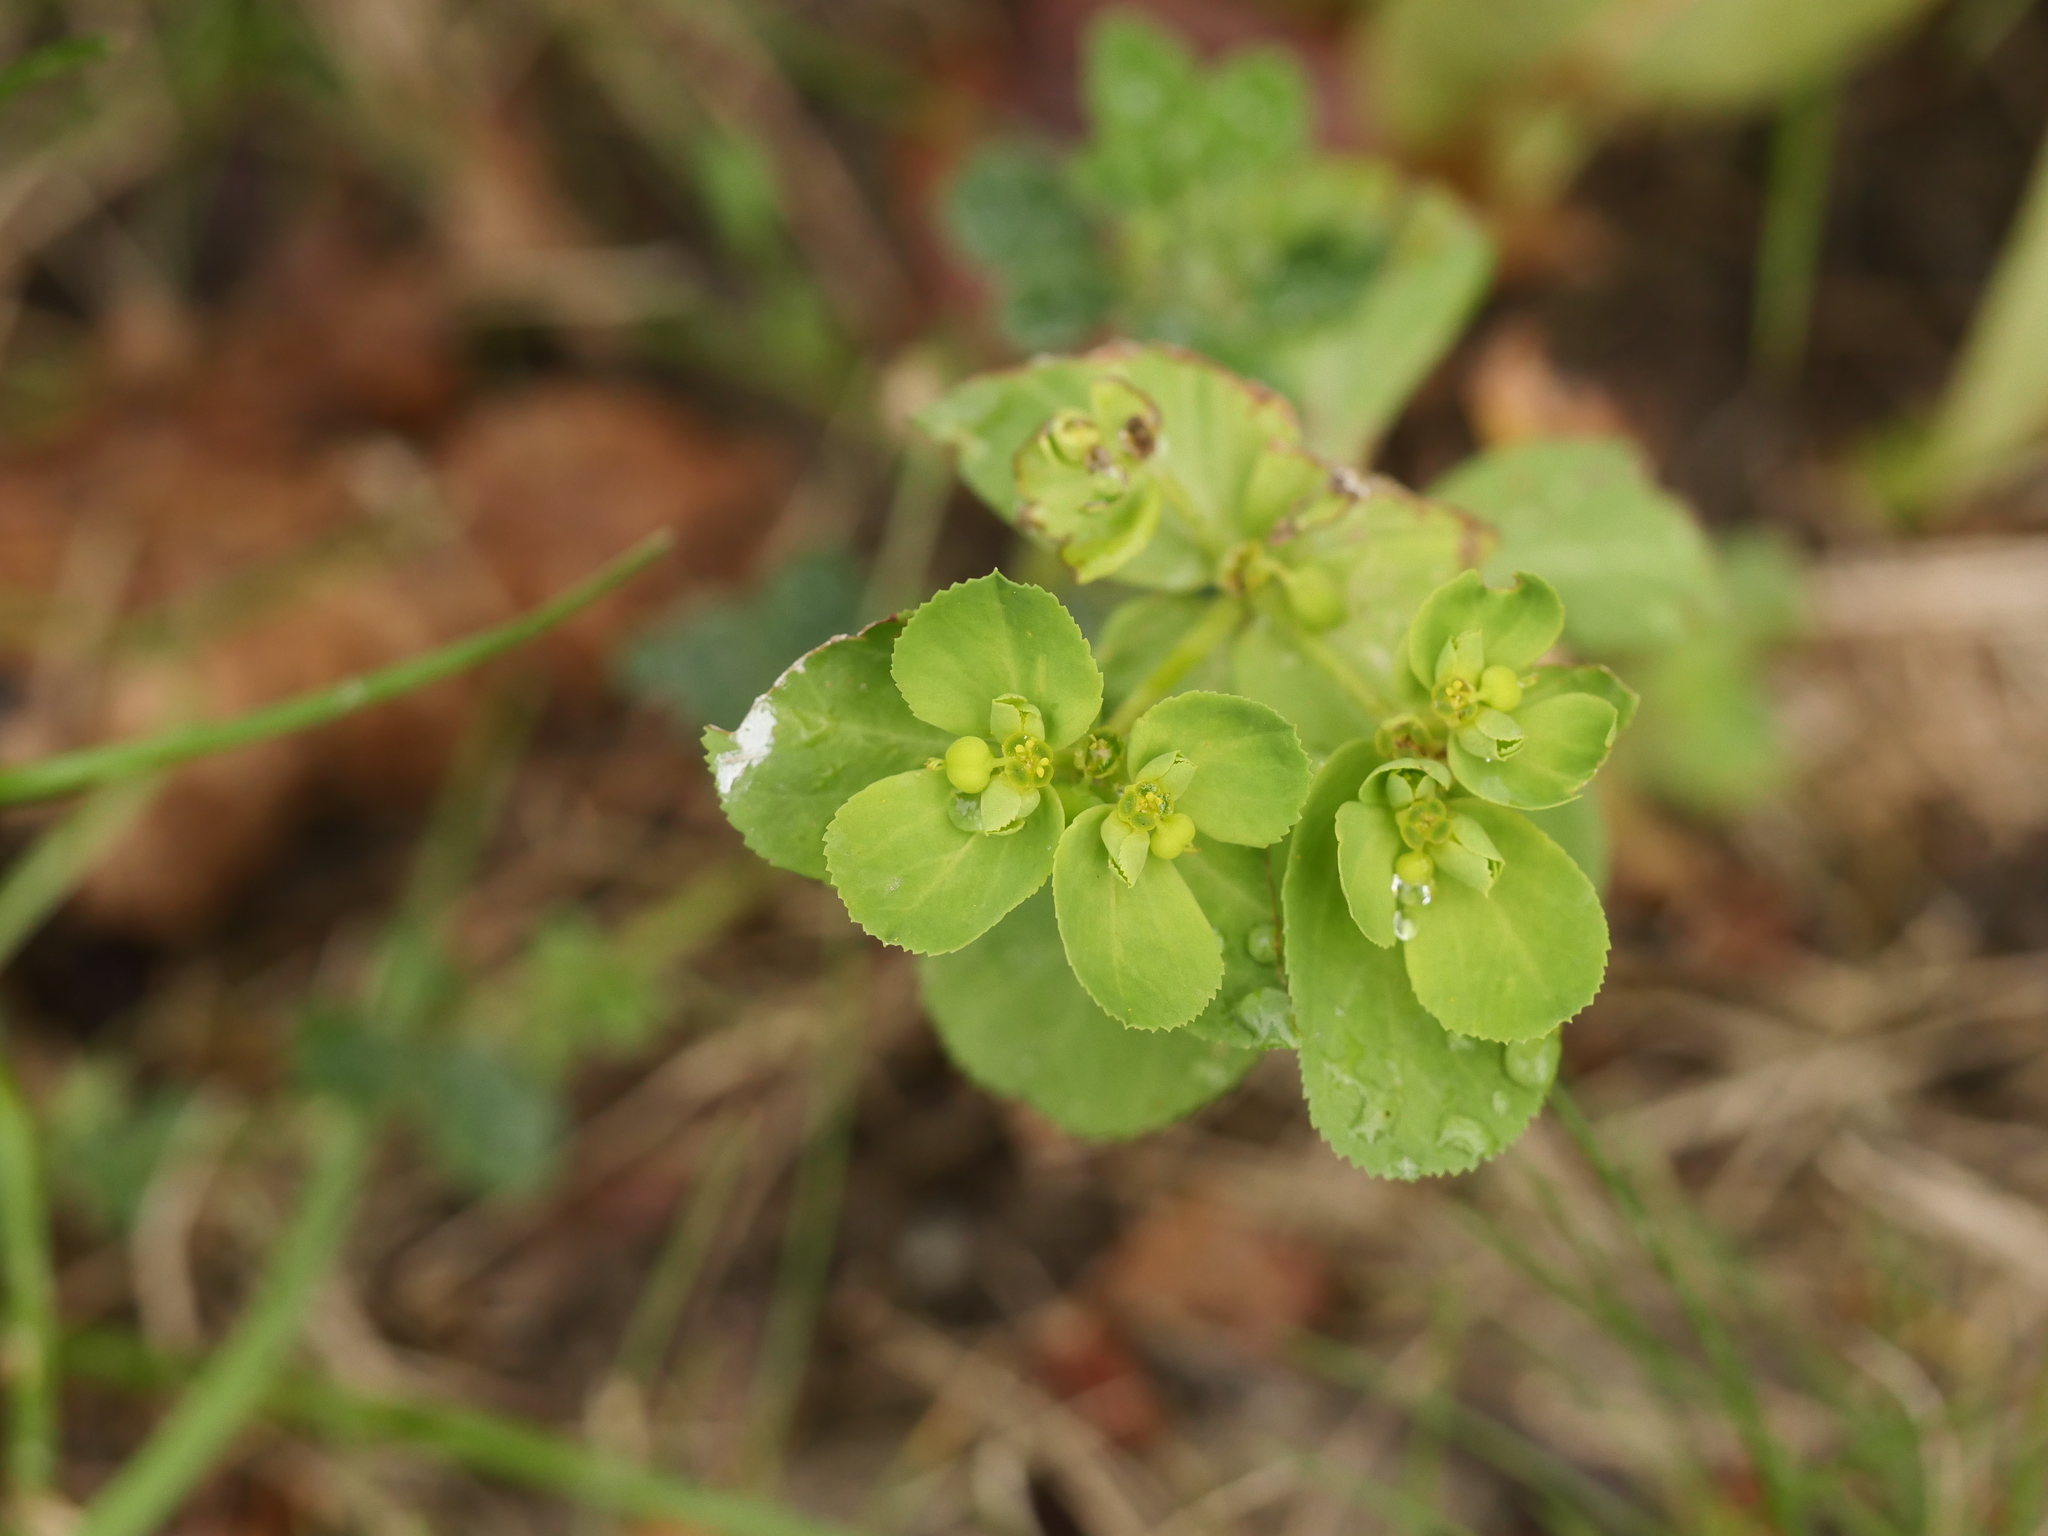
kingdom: Plantae
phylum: Tracheophyta
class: Magnoliopsida
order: Malpighiales
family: Euphorbiaceae
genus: Euphorbia
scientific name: Euphorbia helioscopia
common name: Sun spurge
